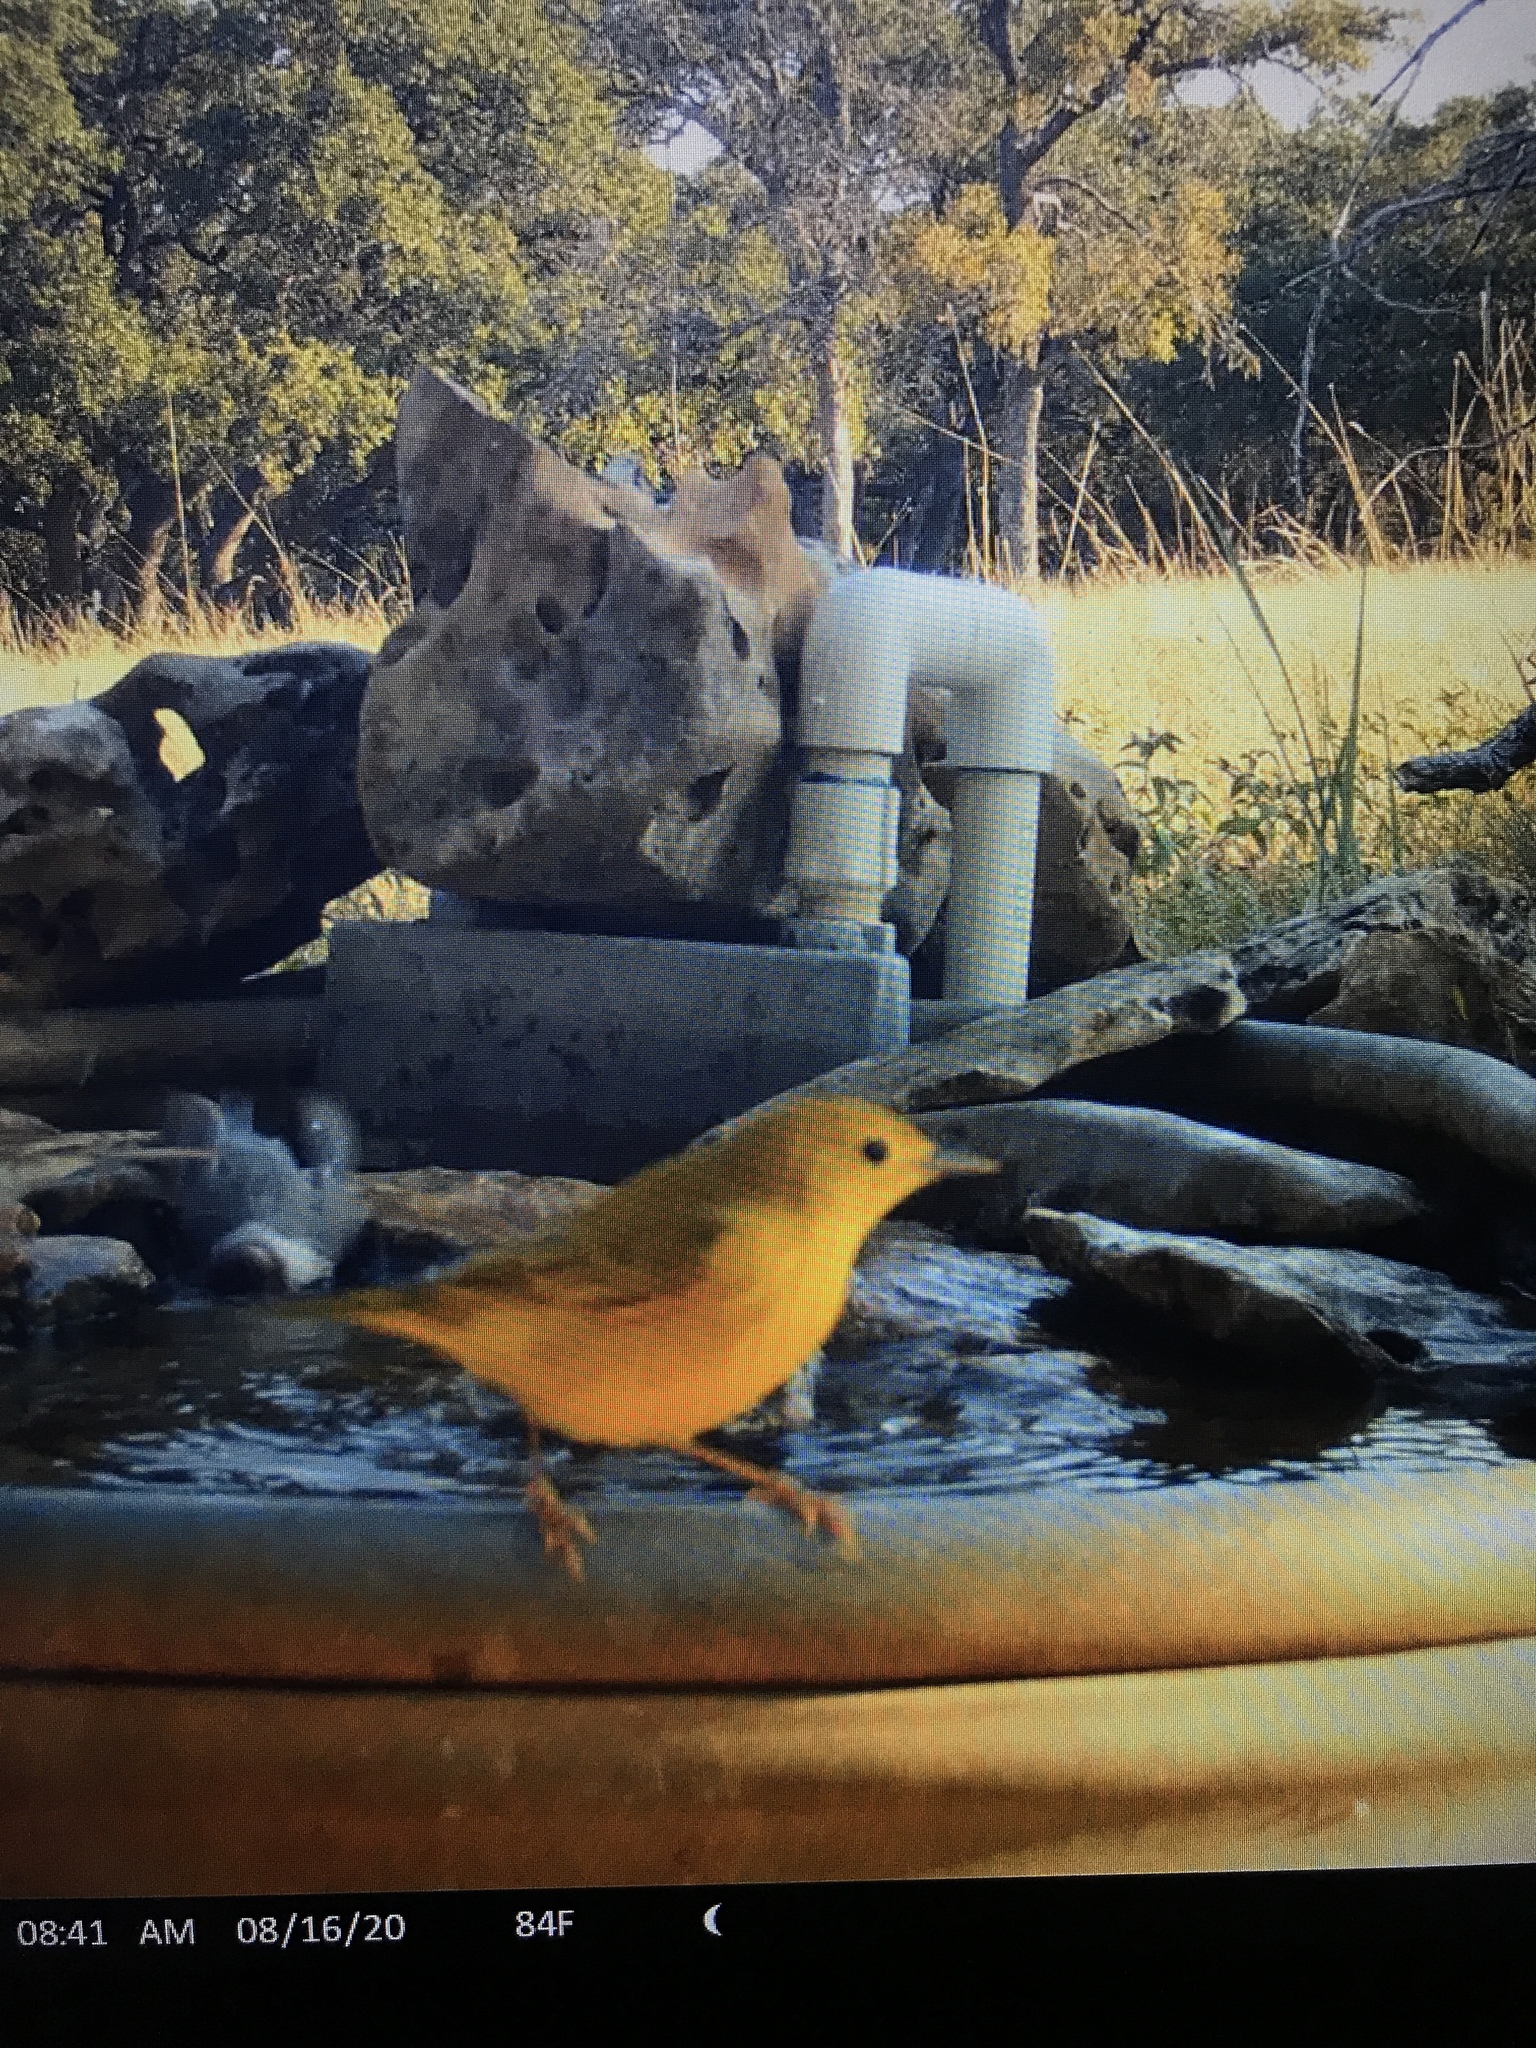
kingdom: Animalia
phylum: Chordata
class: Aves
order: Passeriformes
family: Parulidae
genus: Setophaga
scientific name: Setophaga petechia
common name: Yellow warbler
